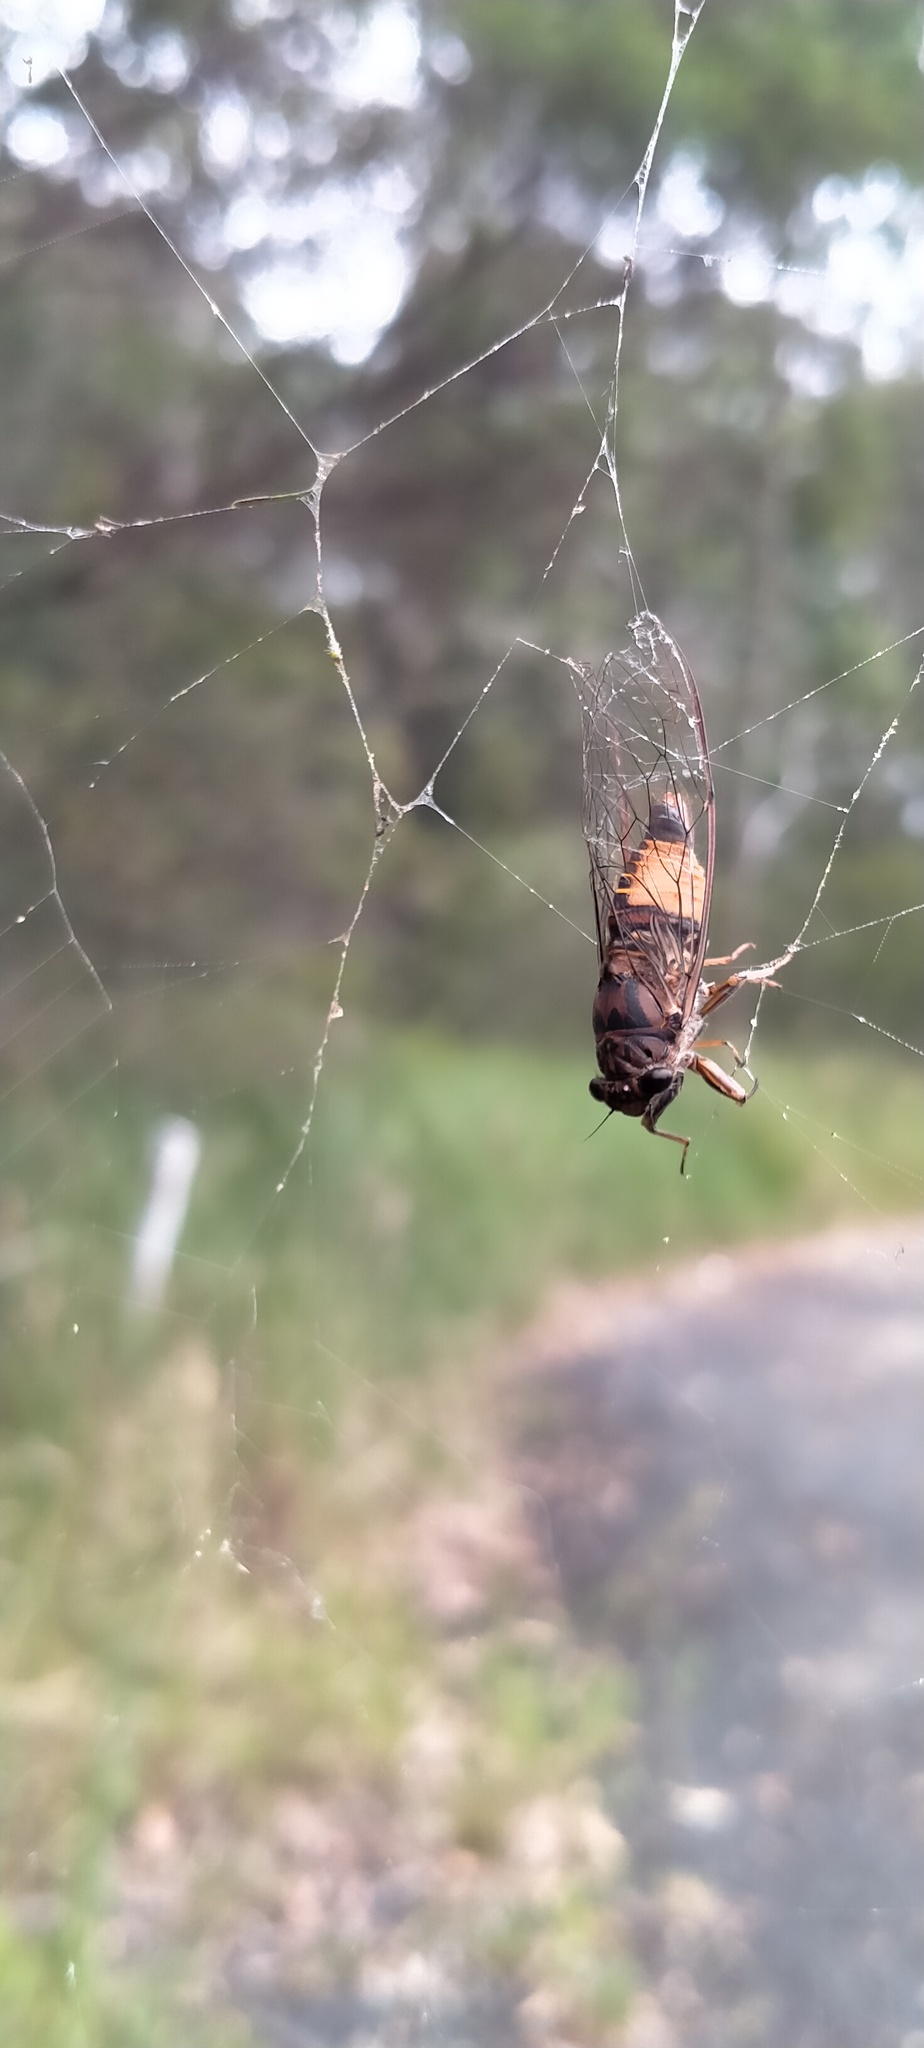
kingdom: Animalia
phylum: Arthropoda
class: Insecta
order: Hemiptera
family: Cicadidae
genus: Yoyetta
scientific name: Yoyetta repetens
